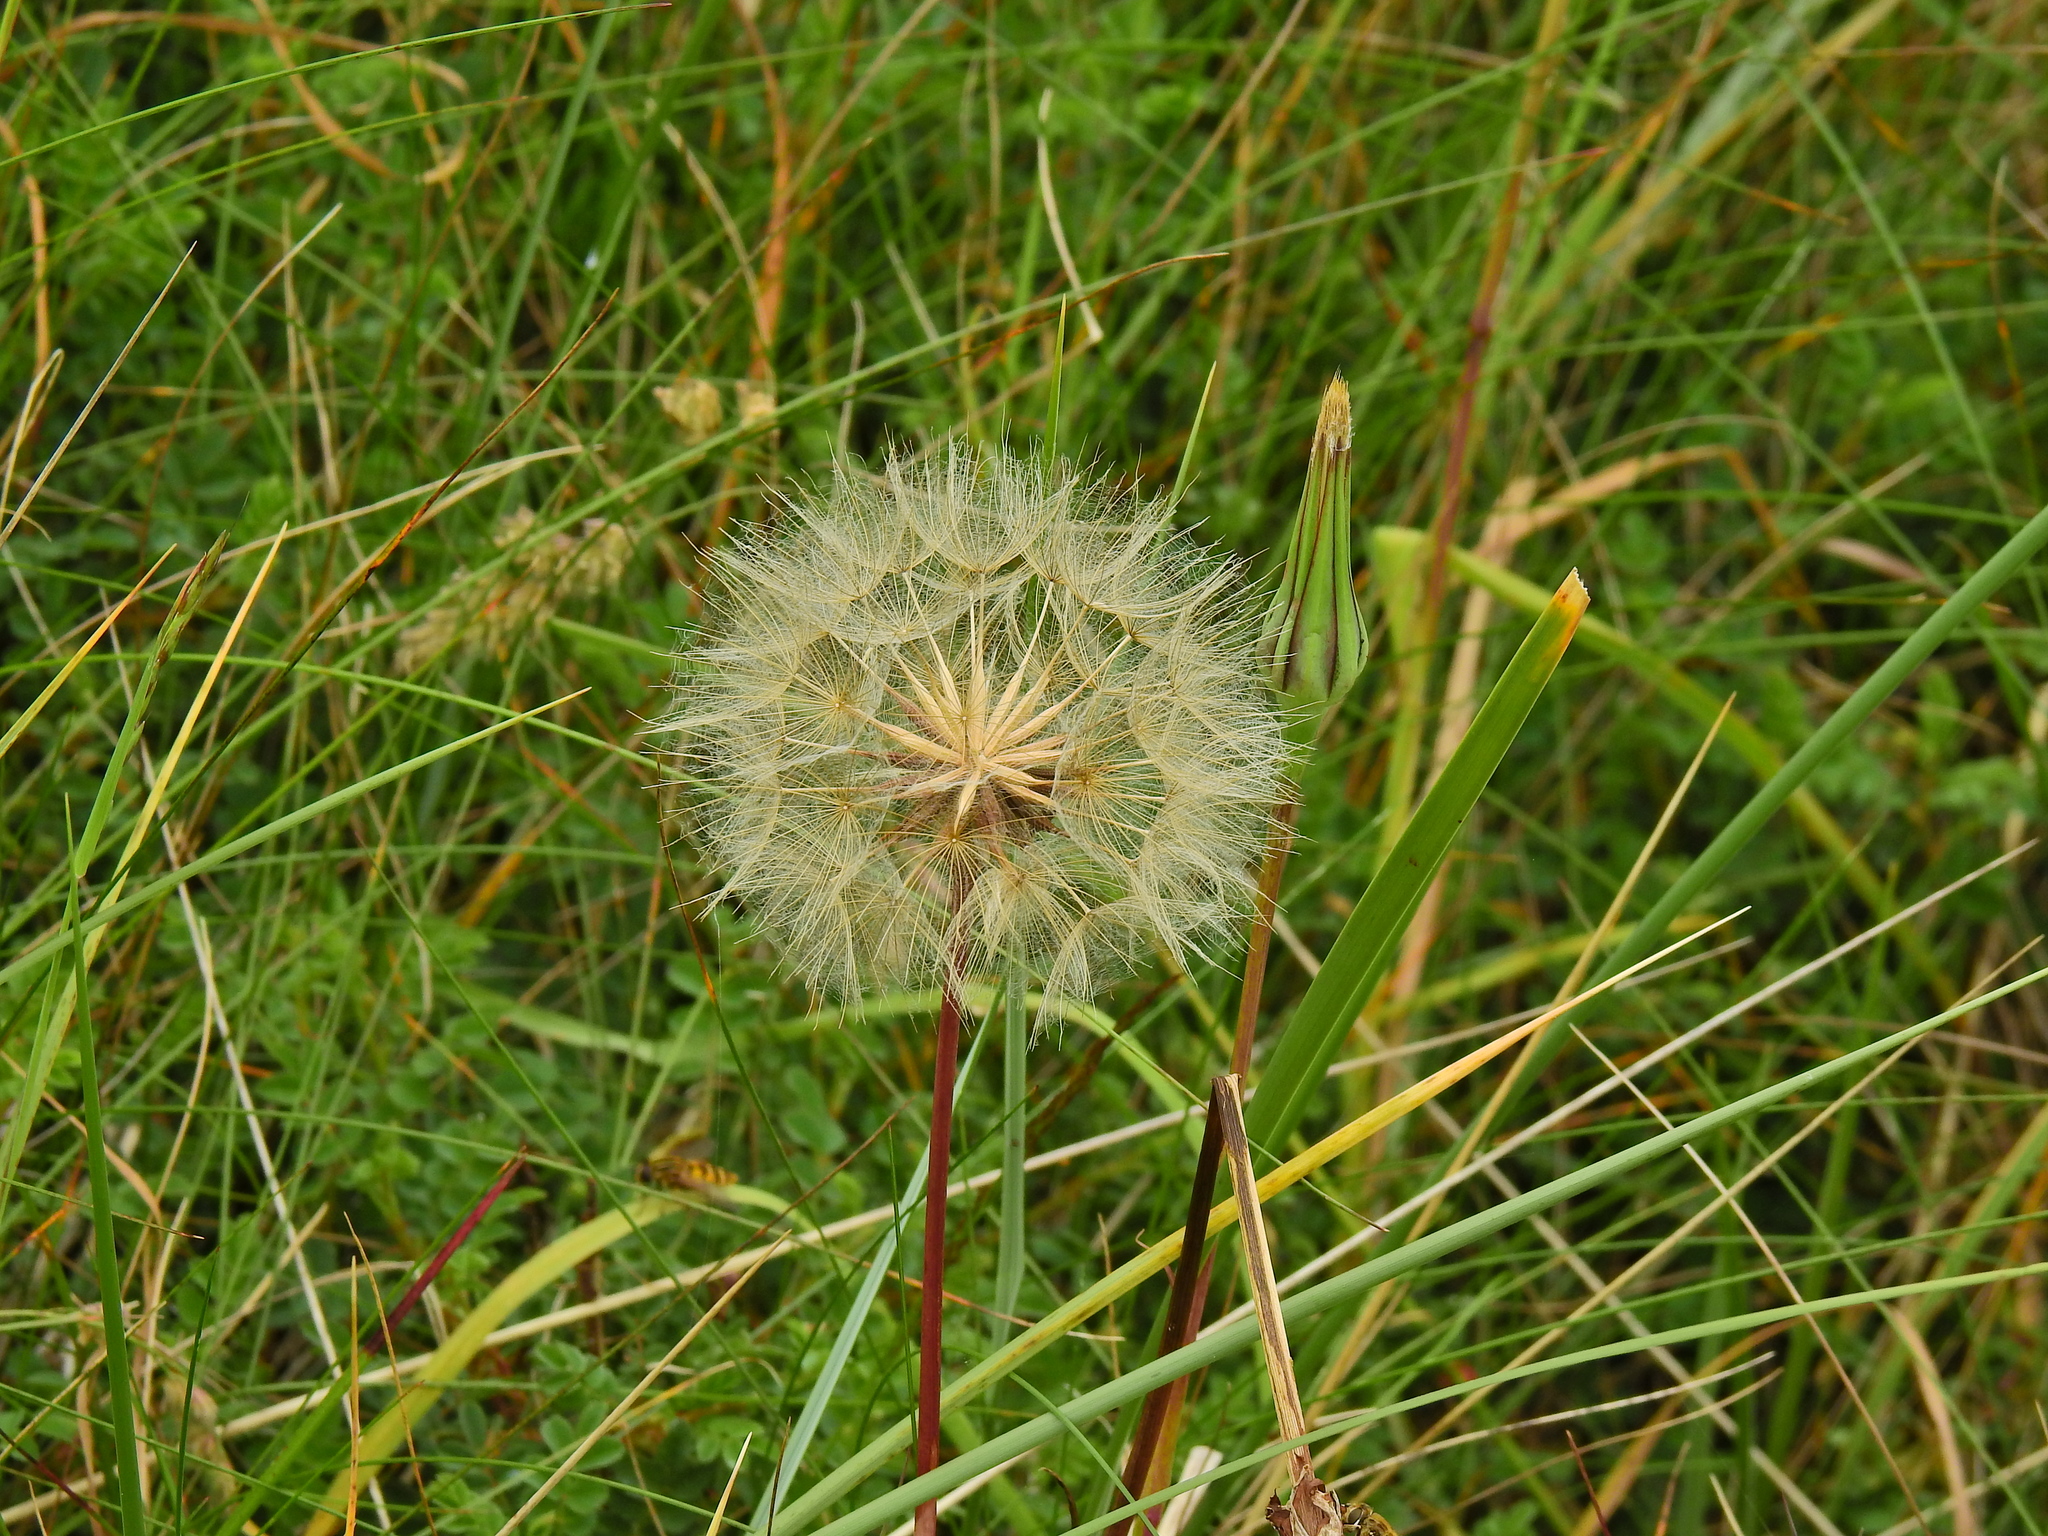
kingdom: Plantae
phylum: Tracheophyta
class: Magnoliopsida
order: Asterales
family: Asteraceae
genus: Tragopogon
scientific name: Tragopogon pratensis
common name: Goat's-beard
